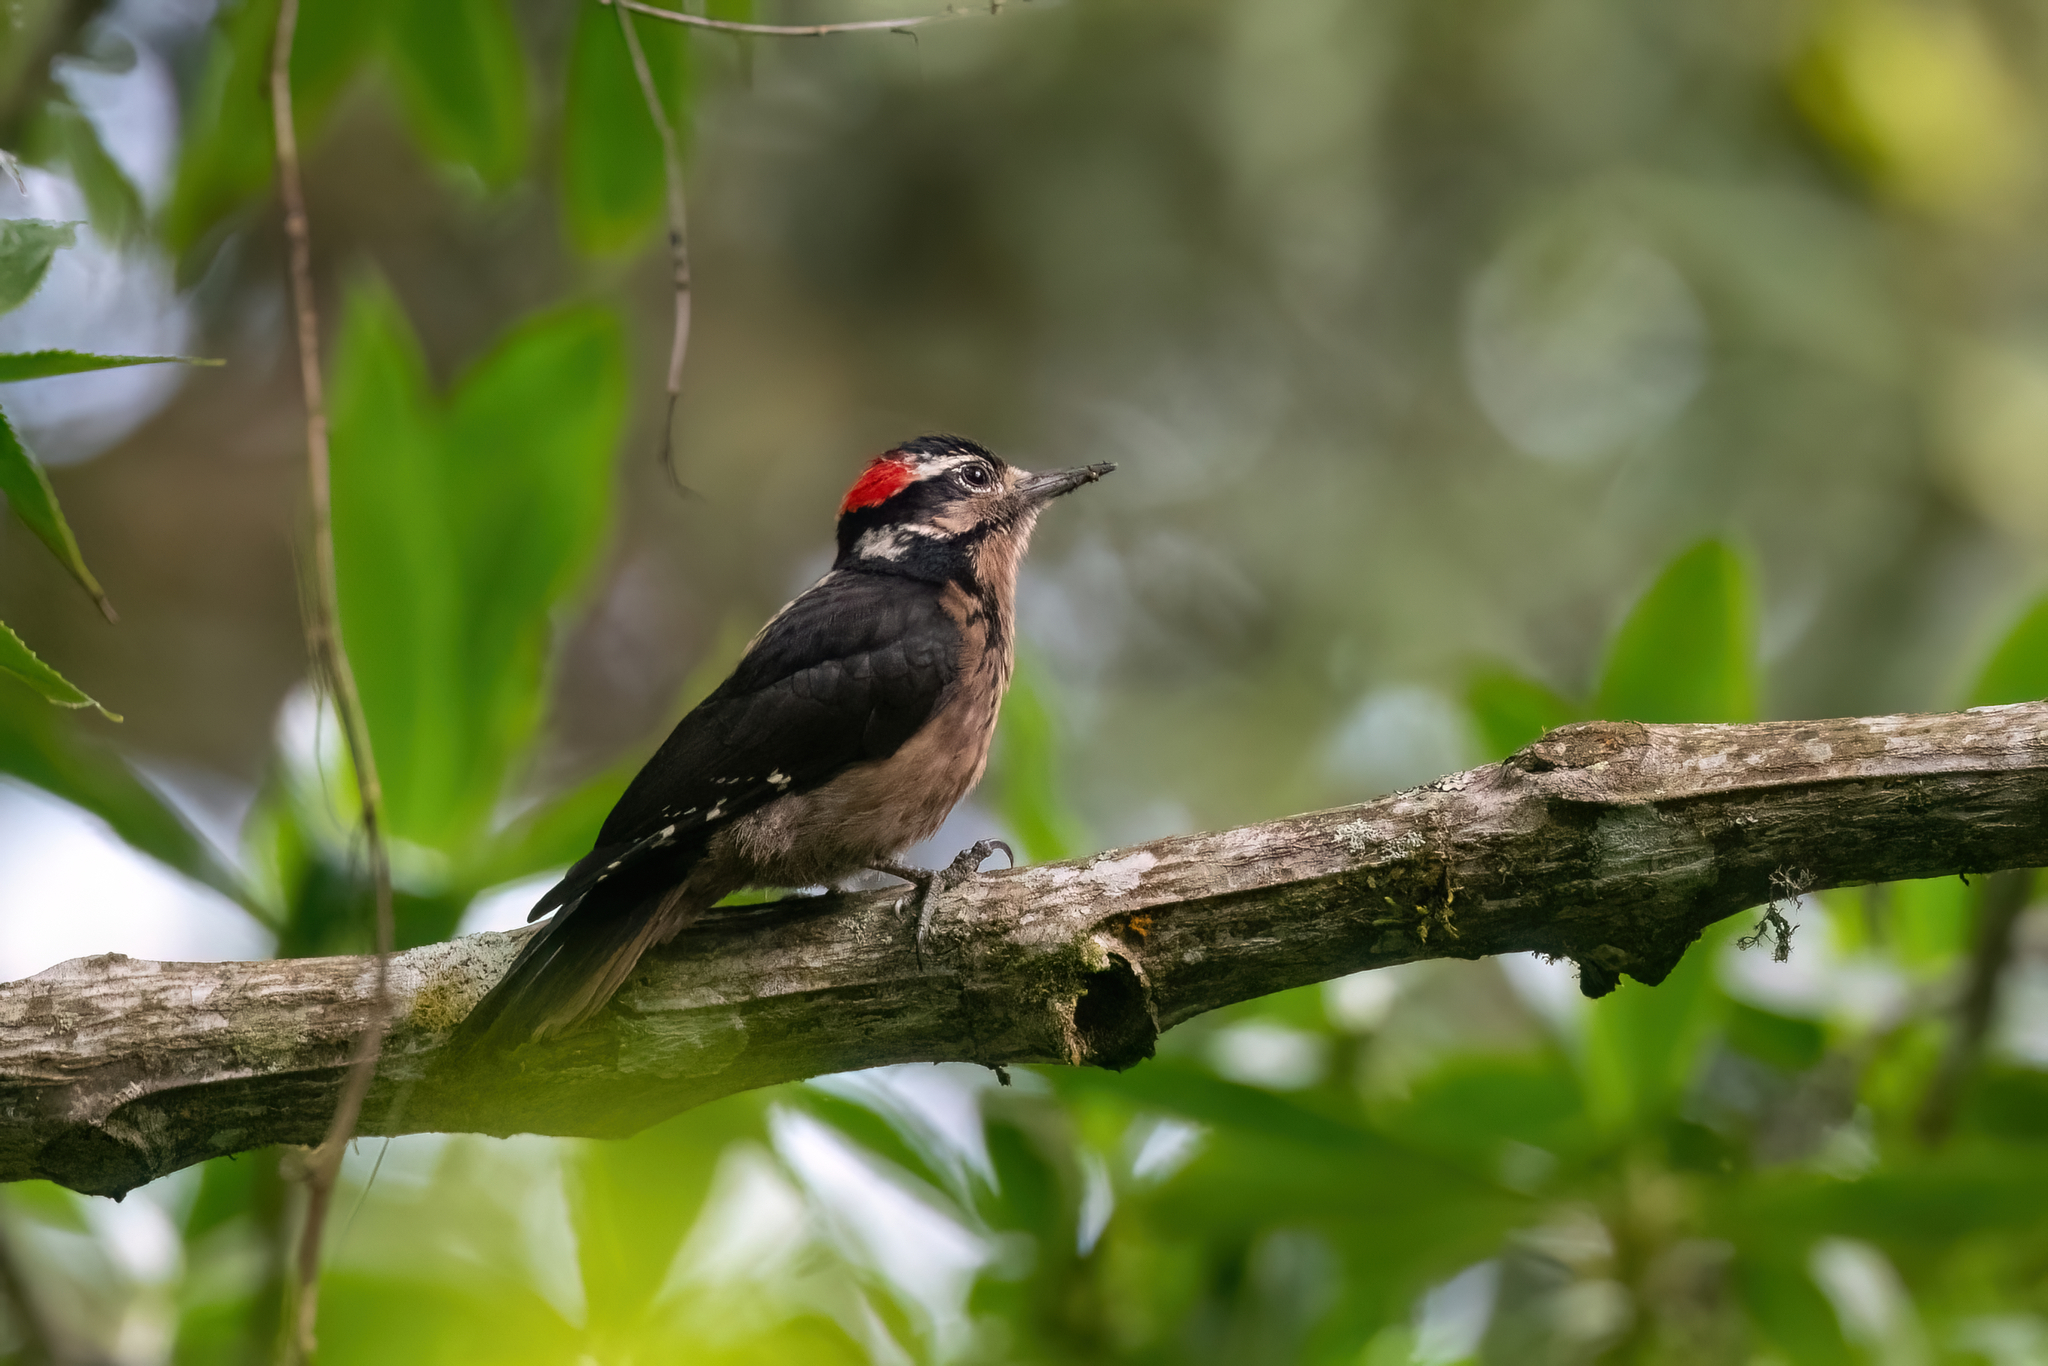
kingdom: Animalia
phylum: Chordata
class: Aves
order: Piciformes
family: Picidae
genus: Leuconotopicus
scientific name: Leuconotopicus villosus
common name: Hairy woodpecker
